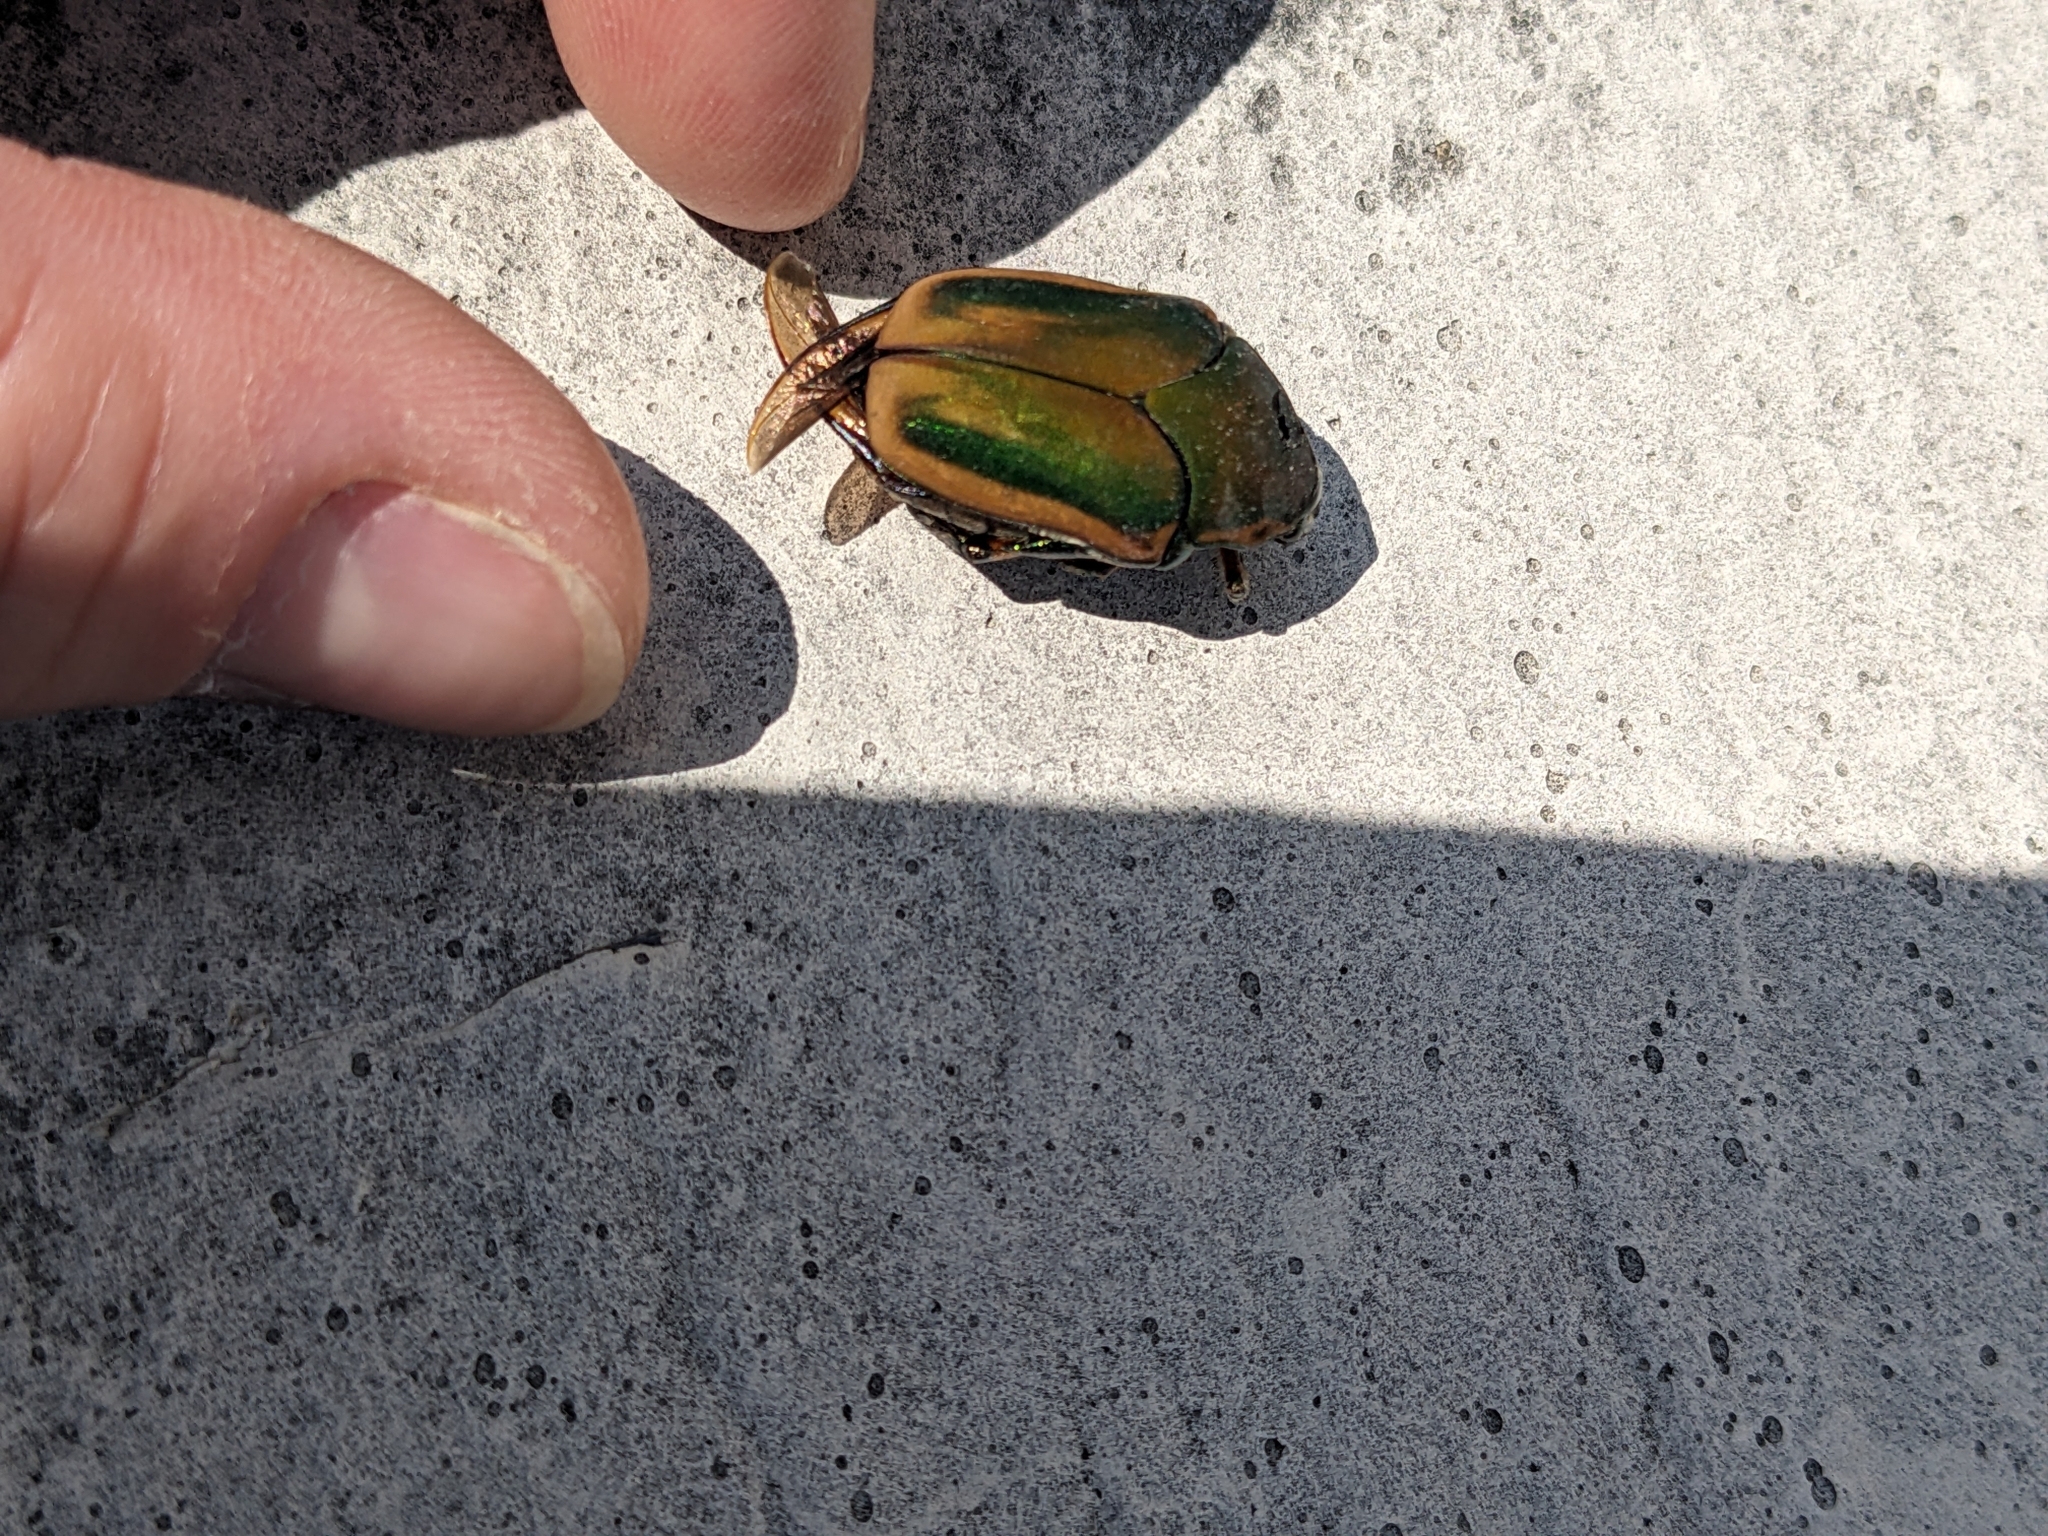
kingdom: Animalia
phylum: Arthropoda
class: Insecta
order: Coleoptera
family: Scarabaeidae
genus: Cotinis
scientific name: Cotinis nitida
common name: Common green june beetle
